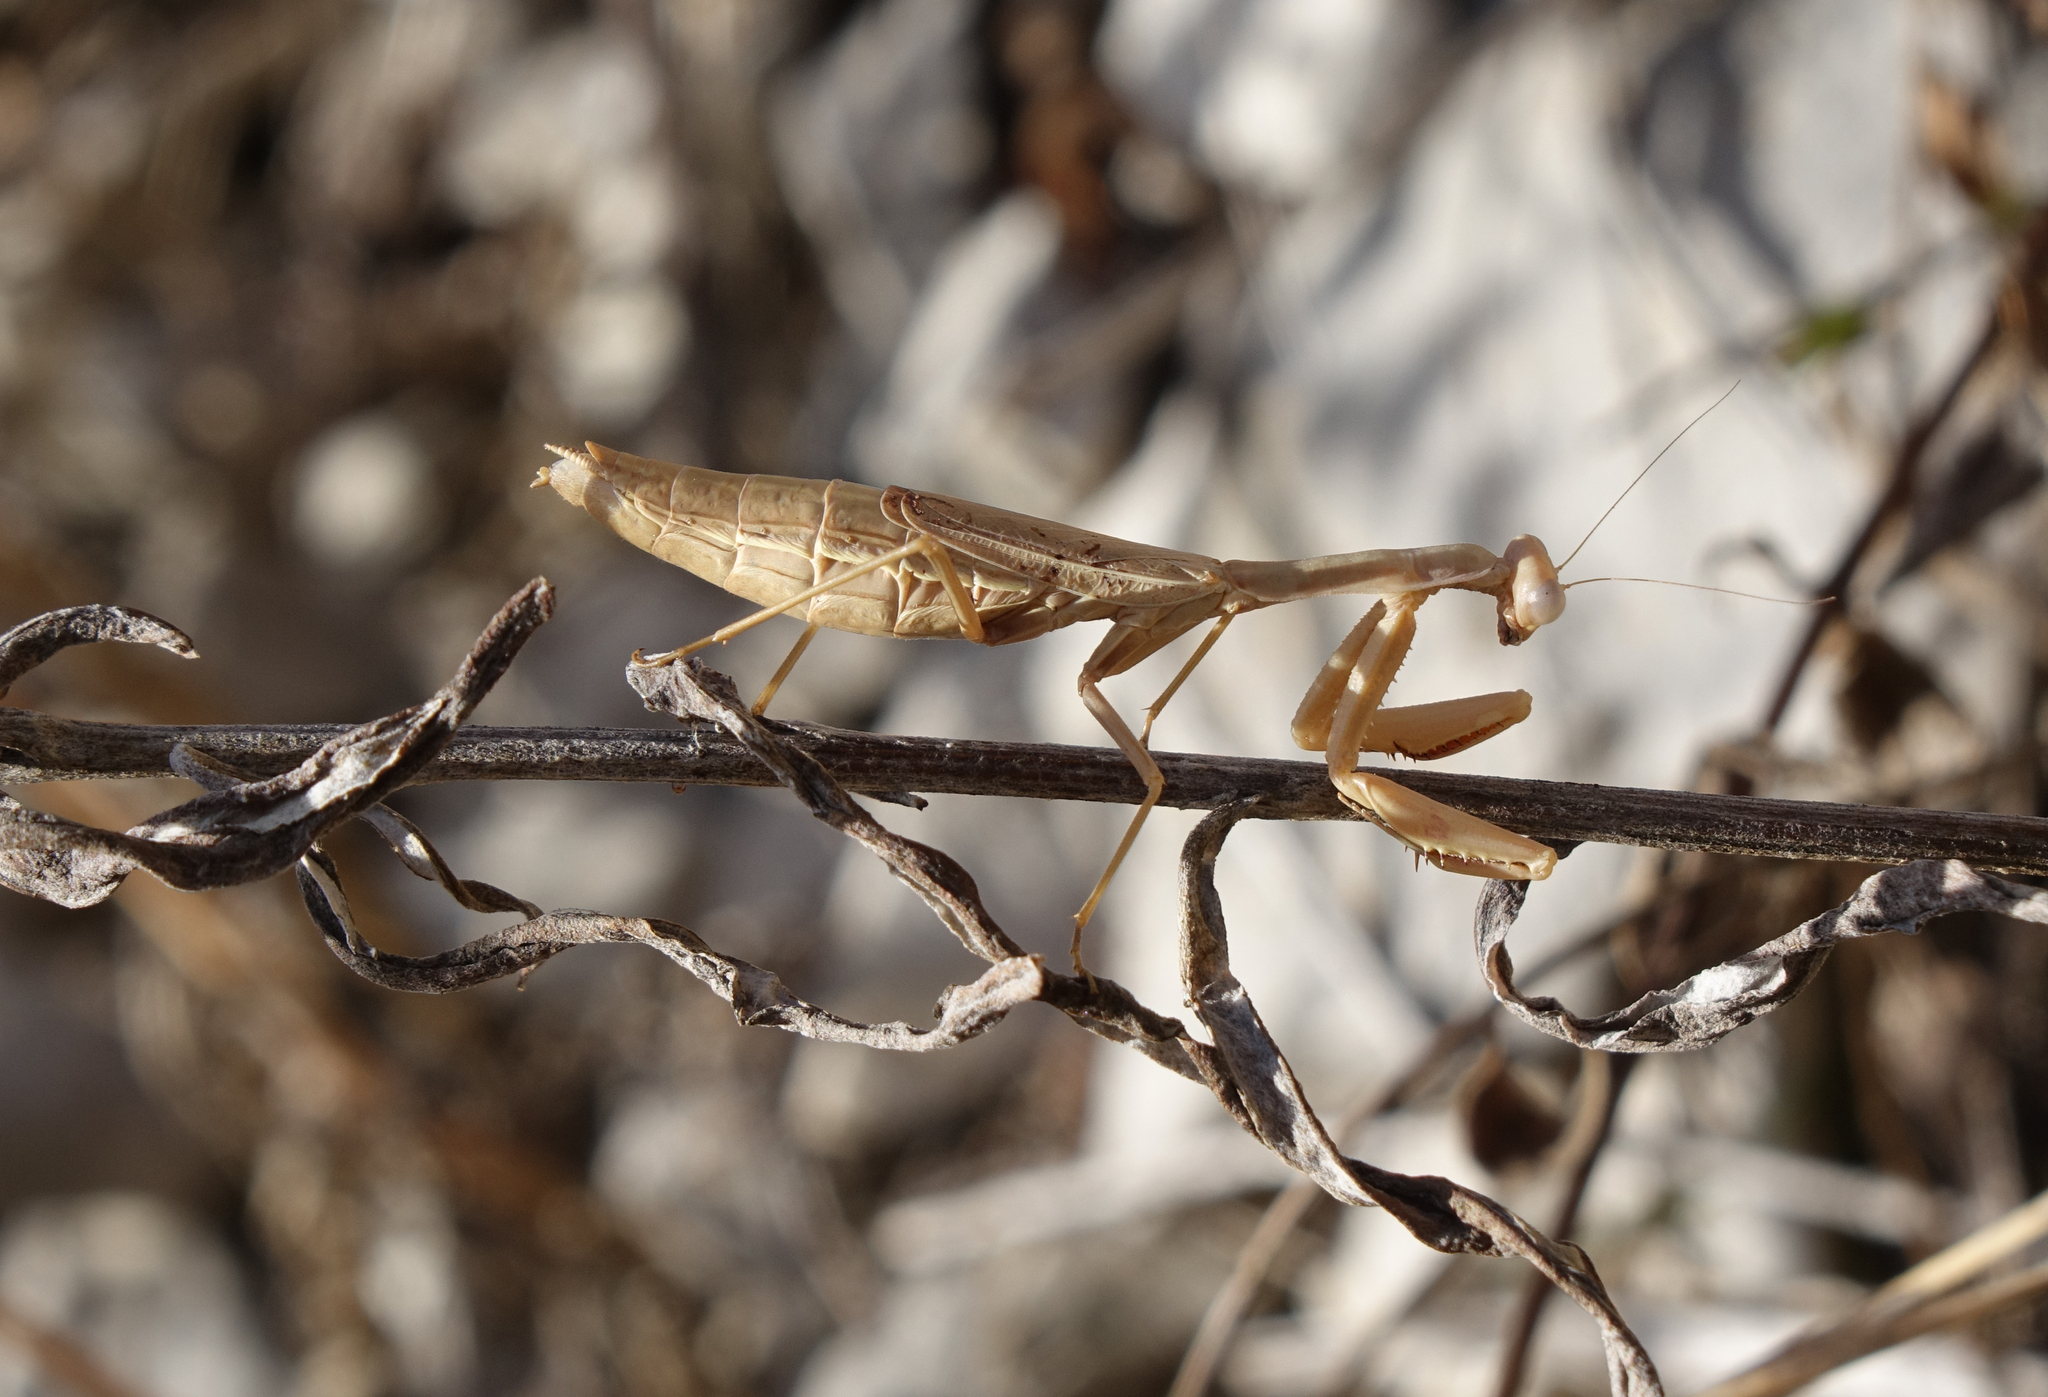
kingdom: Animalia
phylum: Arthropoda
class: Insecta
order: Mantodea
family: Eremiaphilidae
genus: Iris
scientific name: Iris polystictica
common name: Dot-winged mantis
